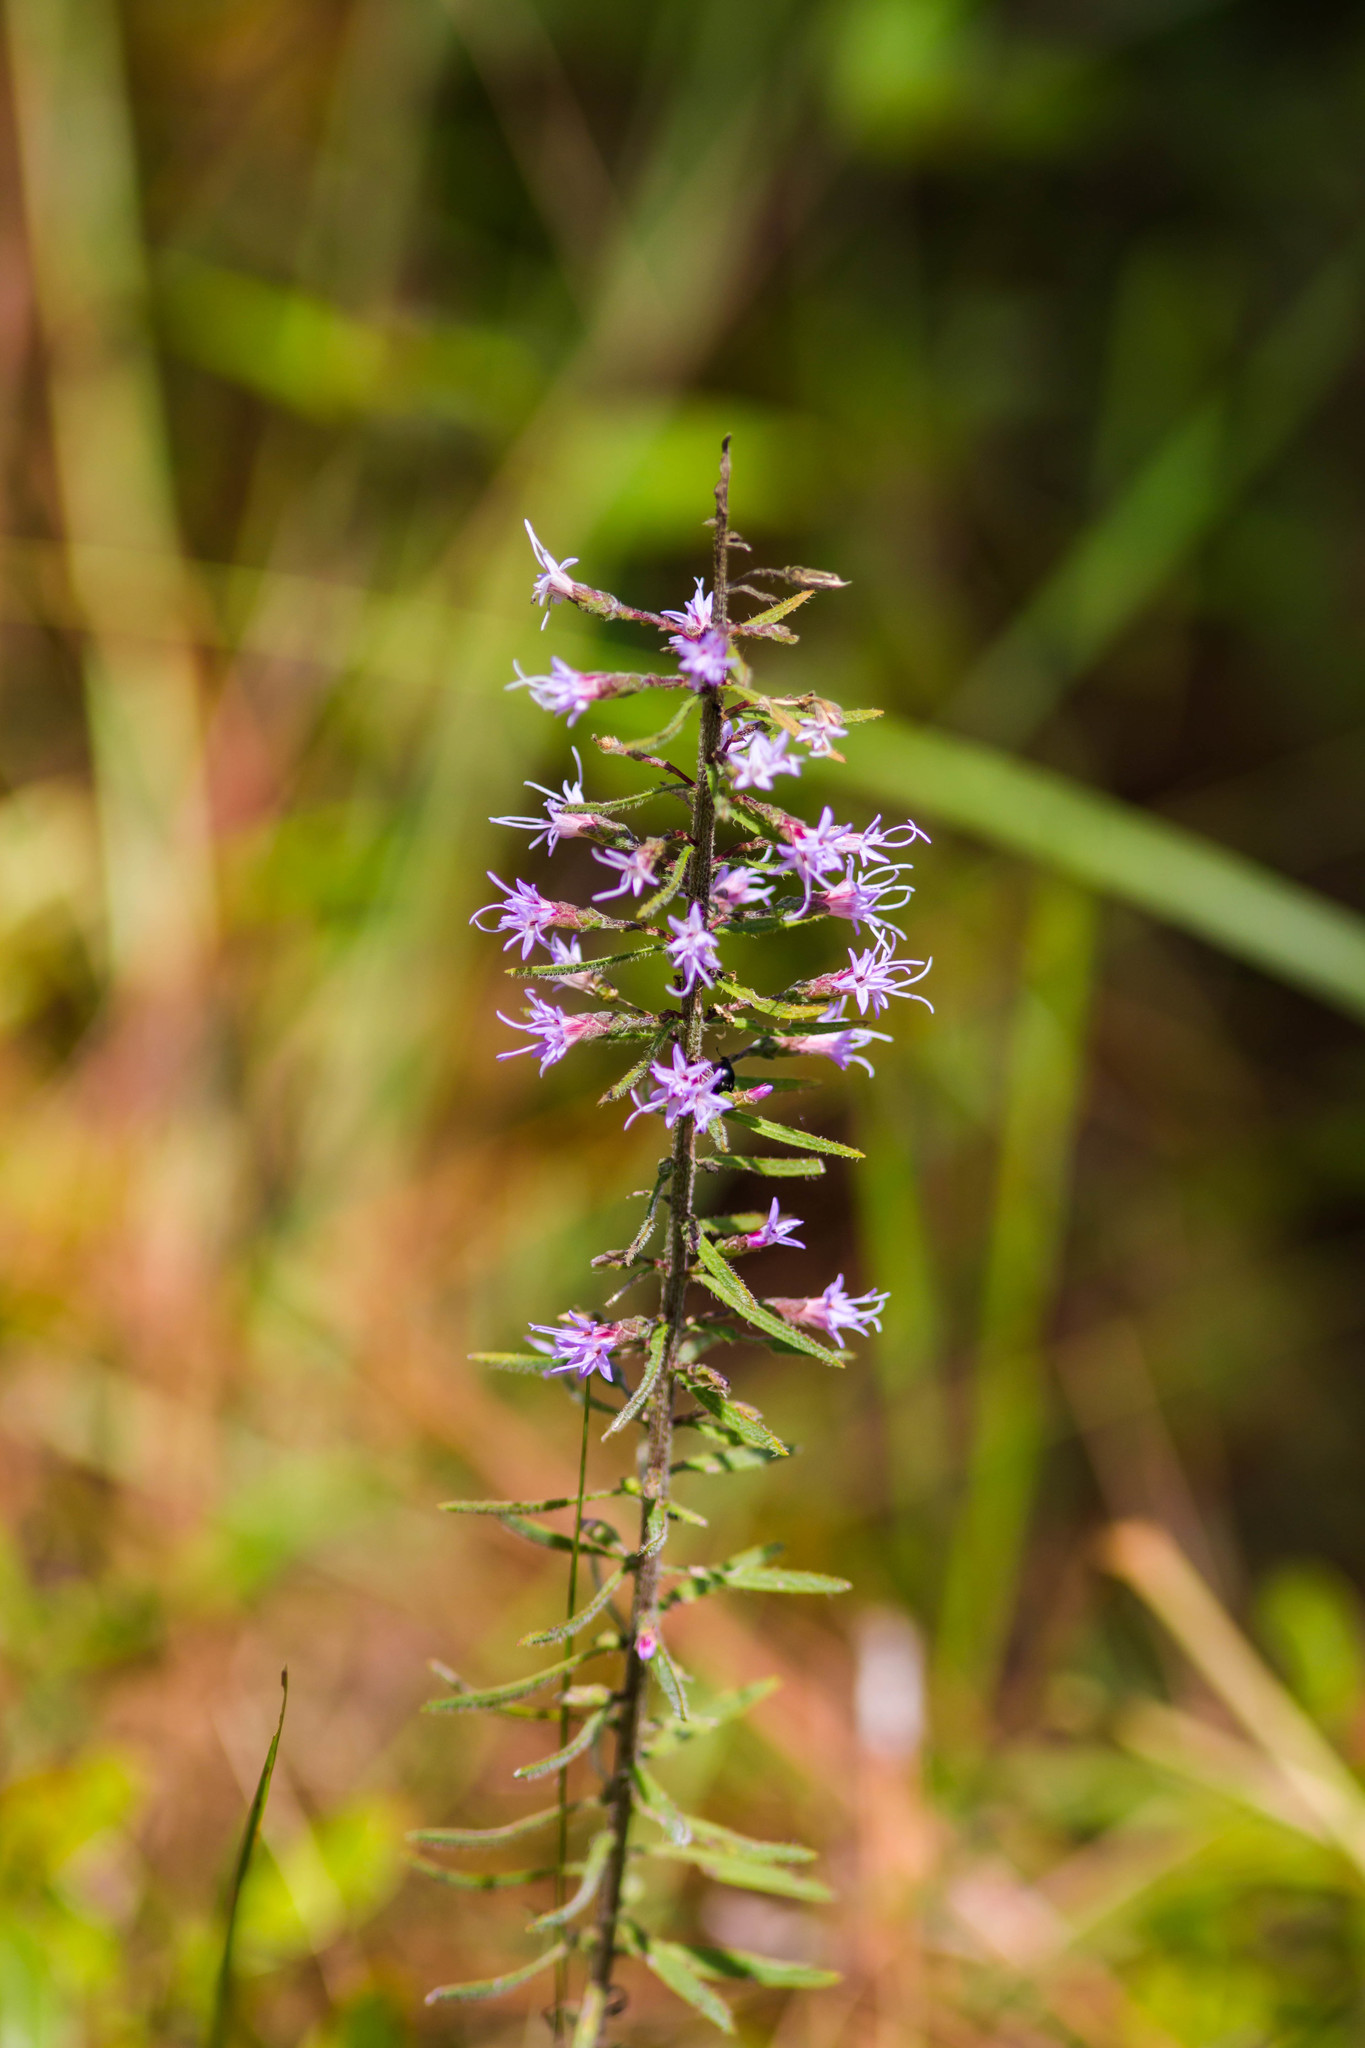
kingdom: Plantae
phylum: Tracheophyta
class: Magnoliopsida
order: Asterales
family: Asteraceae
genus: Liatris
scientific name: Liatris gracilis
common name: Slender gayfeather
